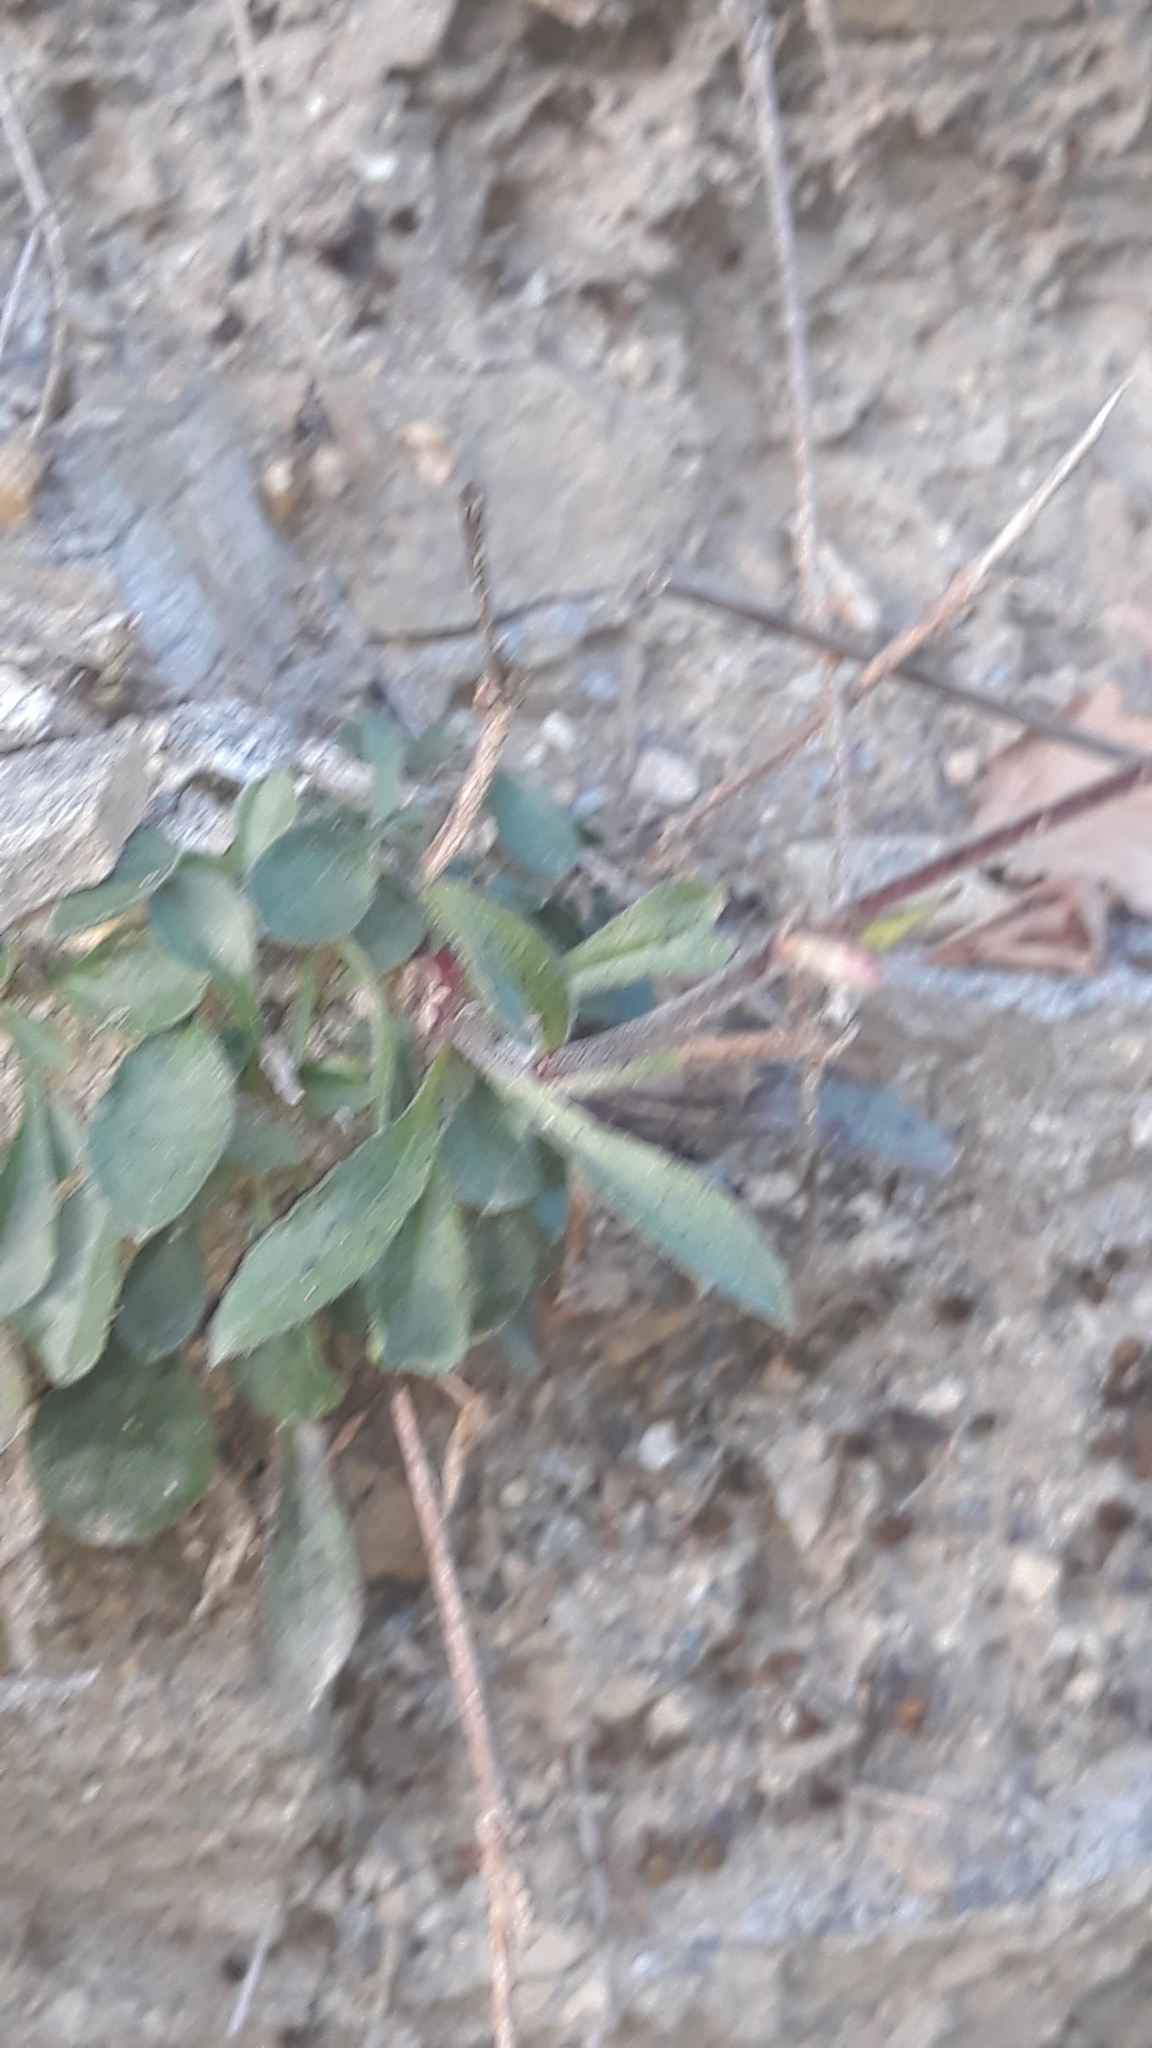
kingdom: Plantae
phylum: Tracheophyta
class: Magnoliopsida
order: Caryophyllales
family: Caryophyllaceae
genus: Silene
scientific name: Silene nutans
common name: Nottingham catchfly
